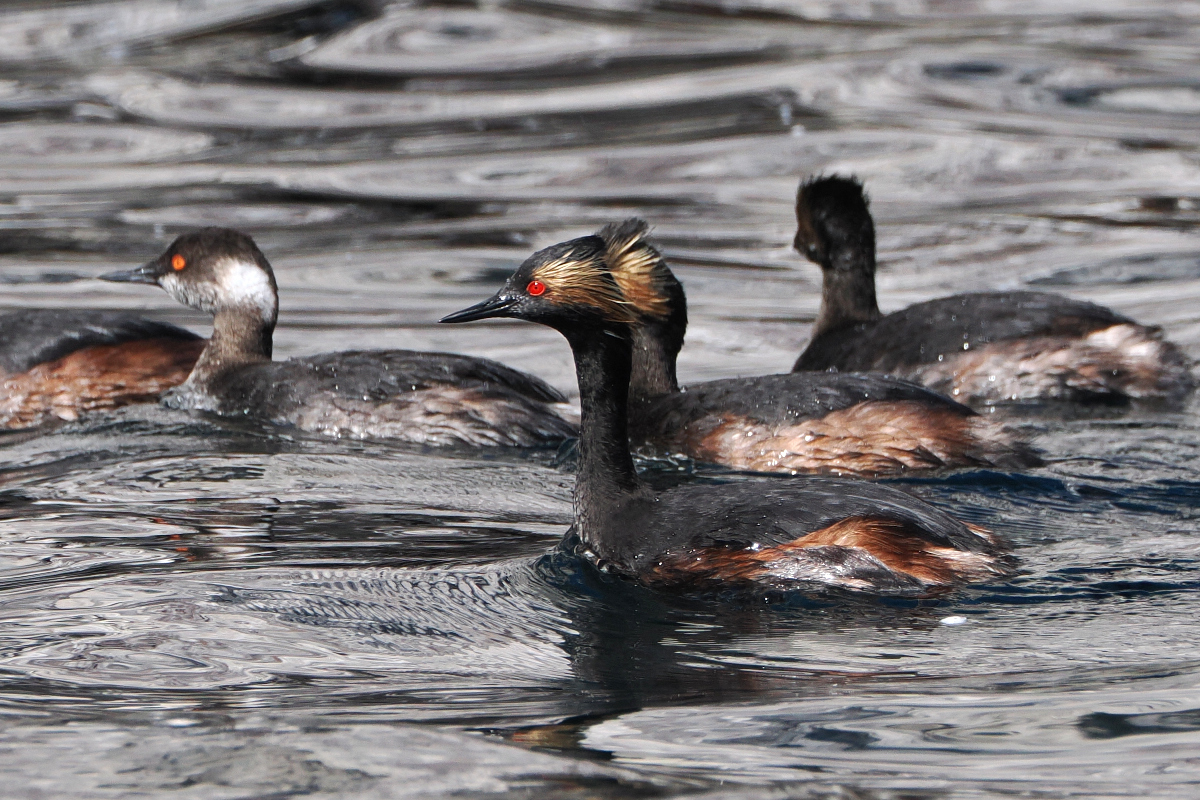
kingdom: Animalia
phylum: Chordata
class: Aves
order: Podicipediformes
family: Podicipedidae
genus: Podiceps
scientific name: Podiceps nigricollis
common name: Black-necked grebe
